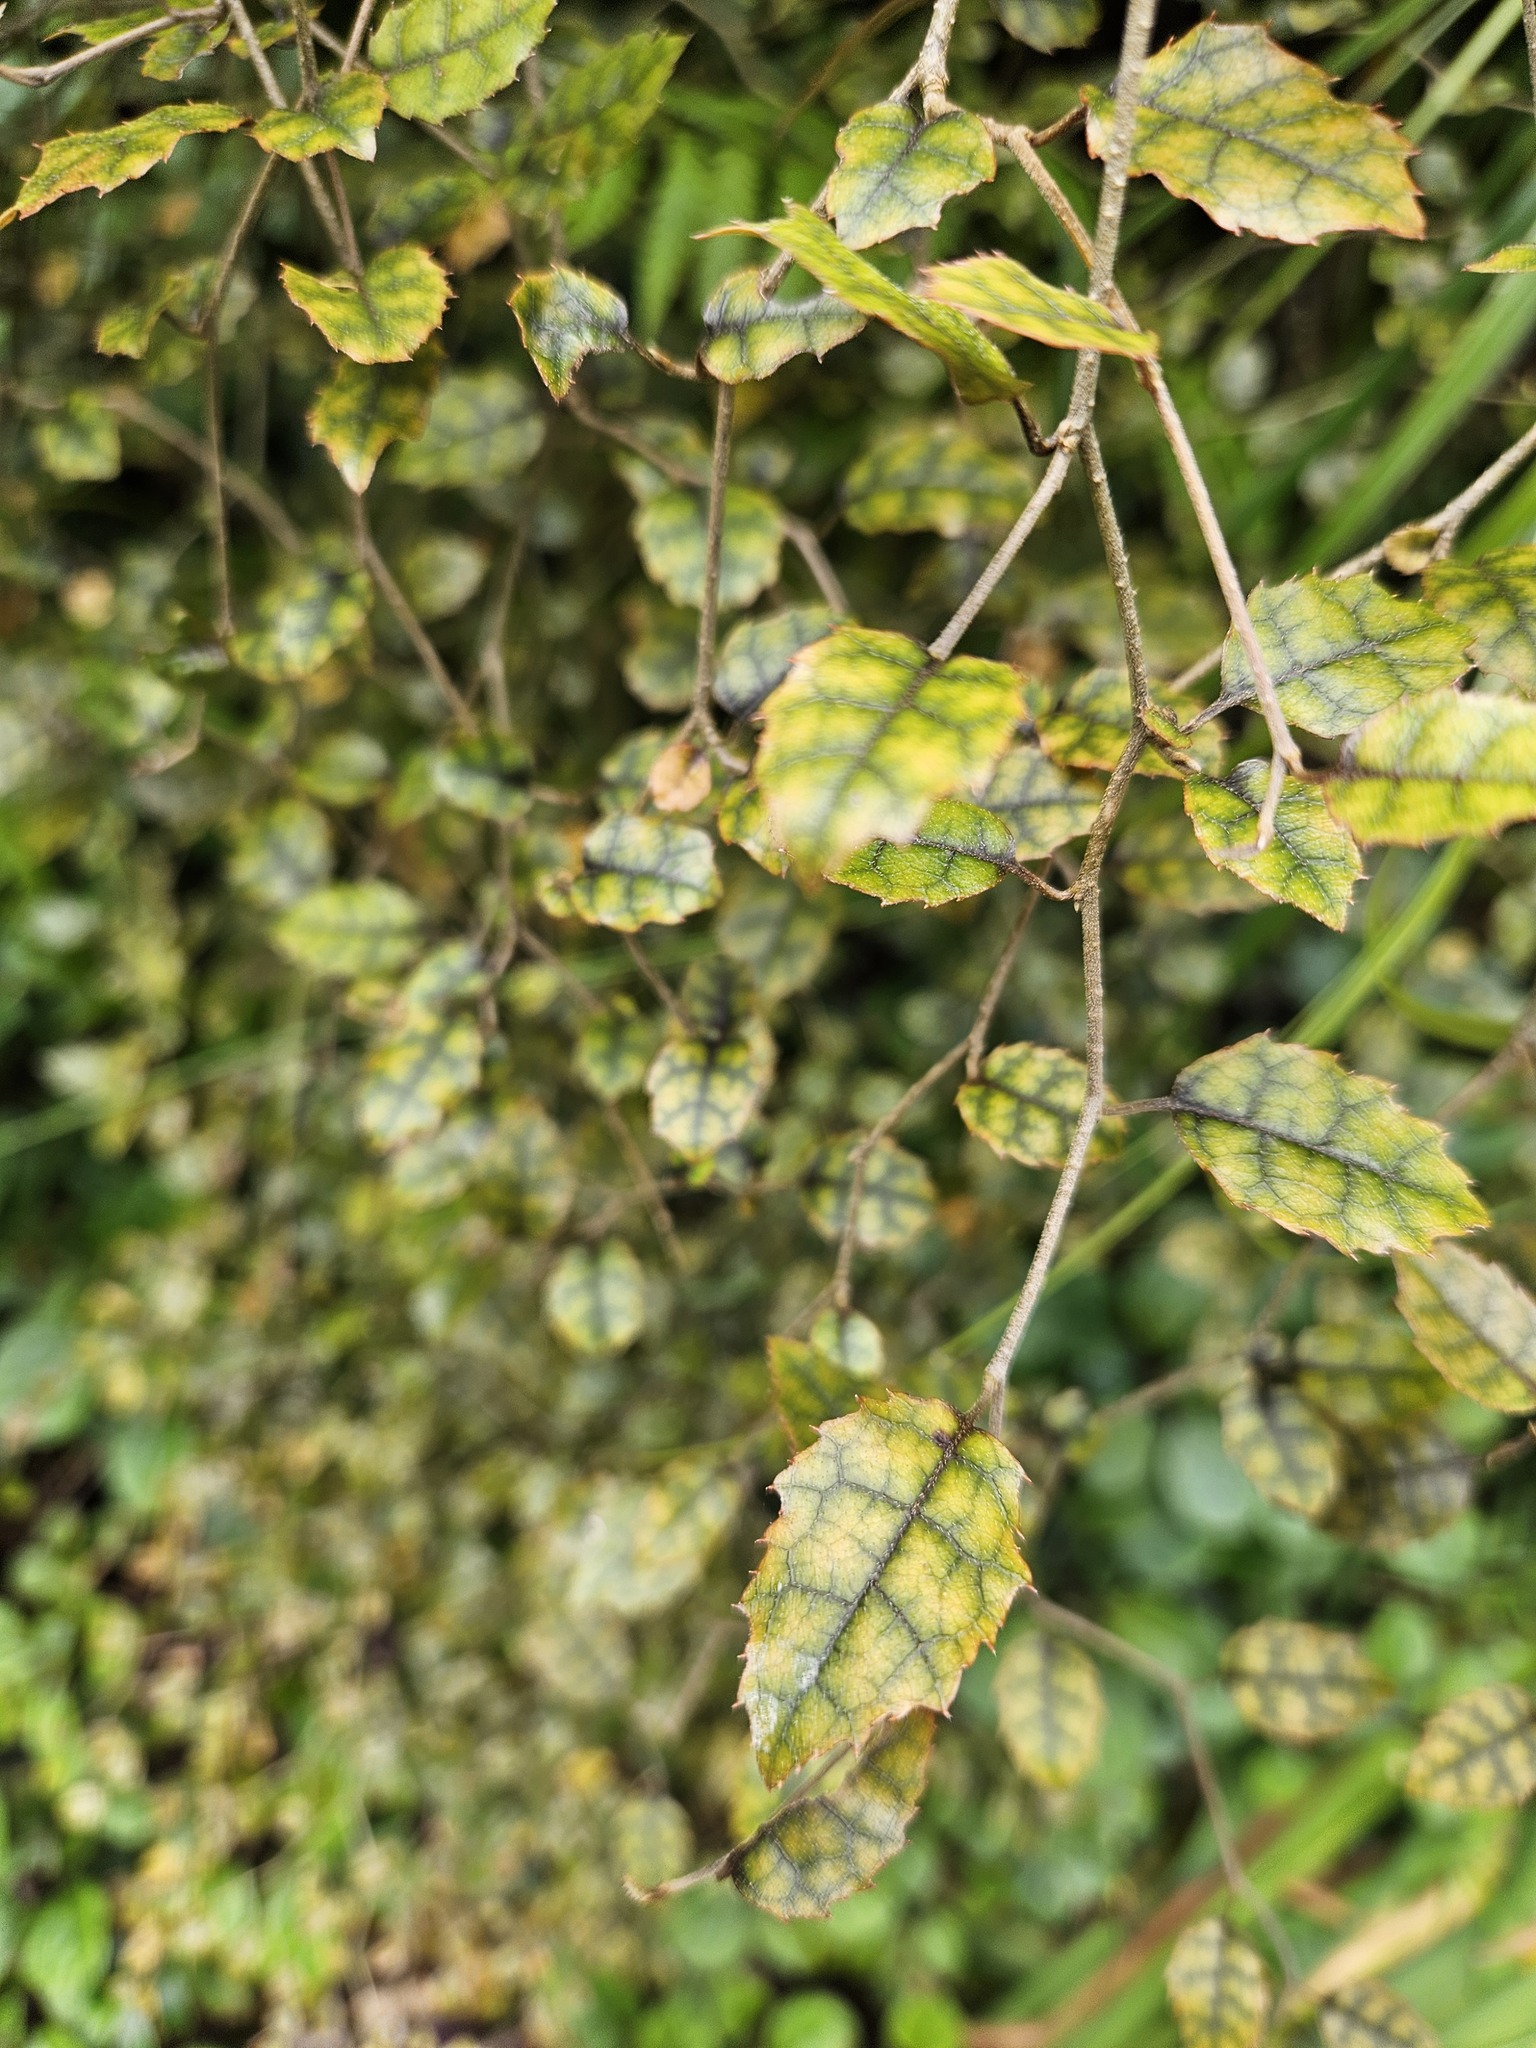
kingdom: Plantae
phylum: Tracheophyta
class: Magnoliopsida
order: Rosales
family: Rosaceae
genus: Rubus
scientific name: Rubus australis
